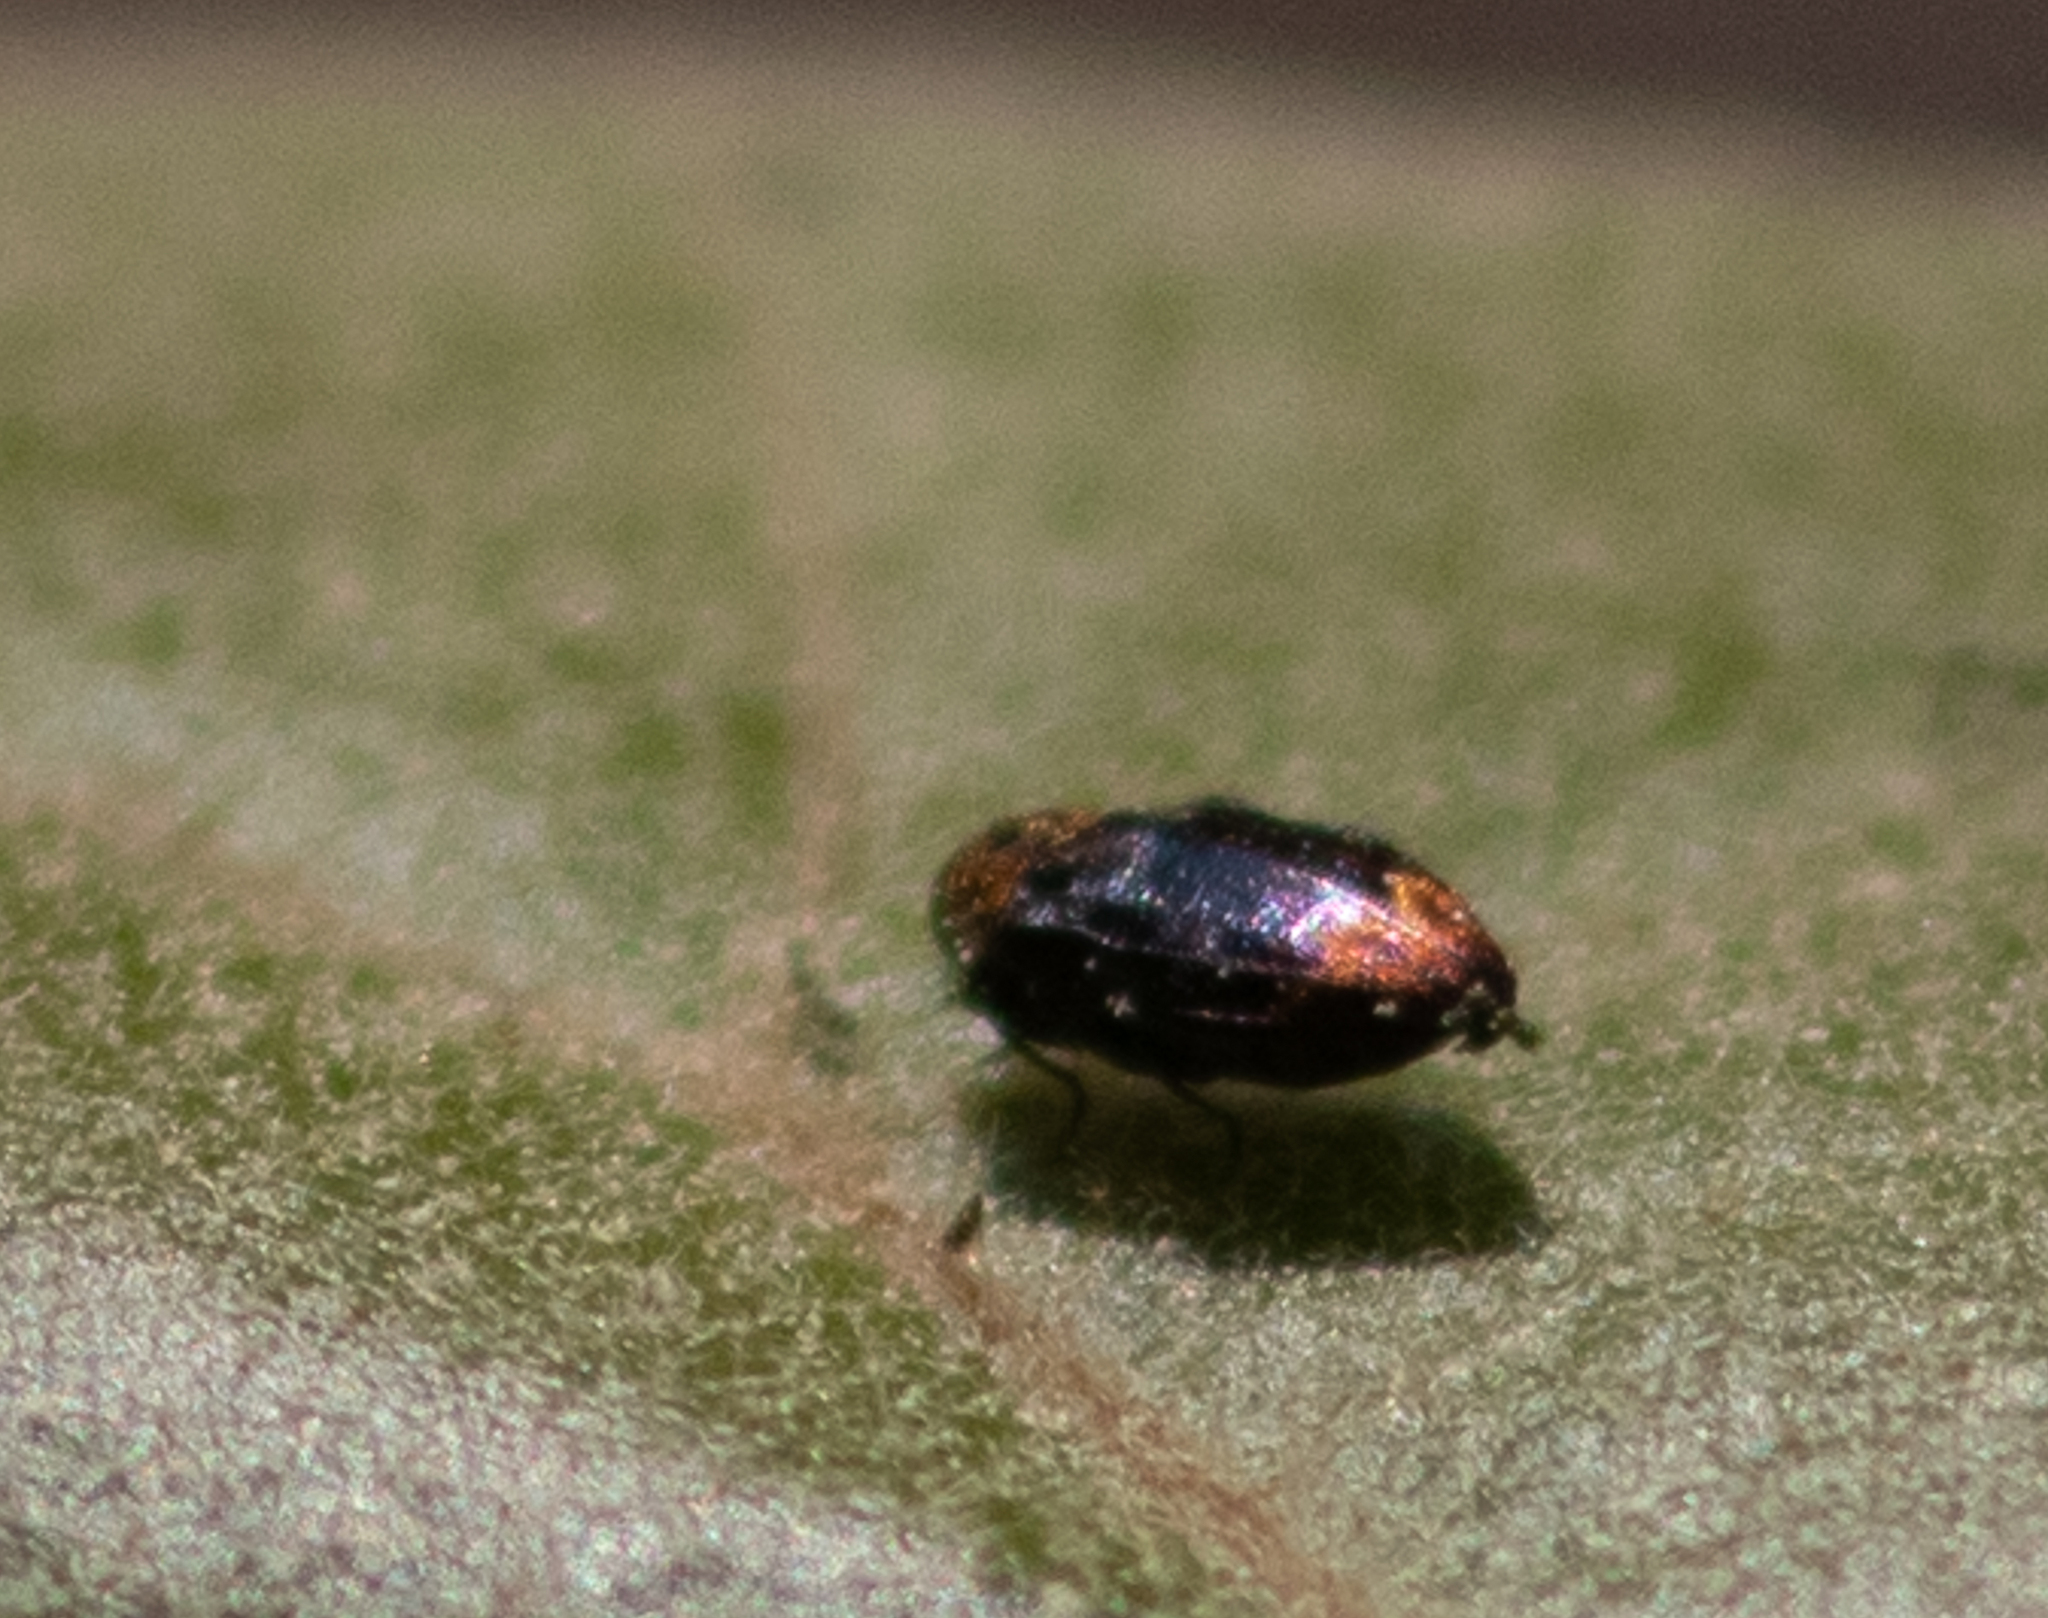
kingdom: Animalia
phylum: Arthropoda
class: Insecta
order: Coleoptera
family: Buprestidae
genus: Brachys
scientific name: Brachys aerosus
